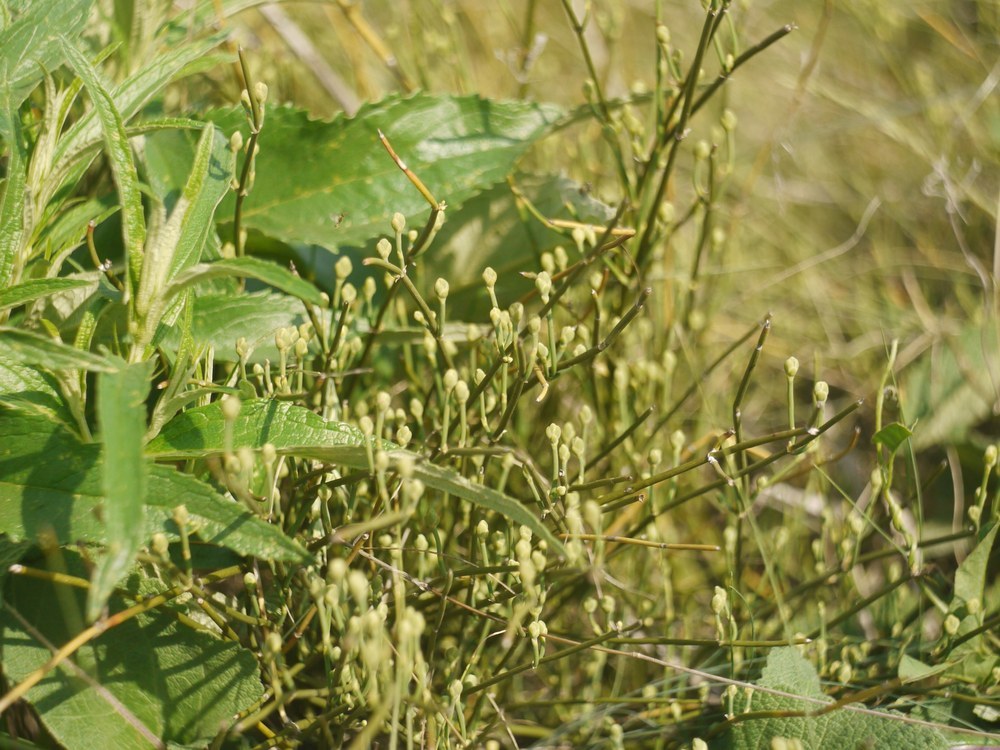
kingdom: Plantae
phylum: Tracheophyta
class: Gnetopsida
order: Ephedrales
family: Ephedraceae
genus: Ephedra
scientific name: Ephedra distachya
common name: Sea grape
